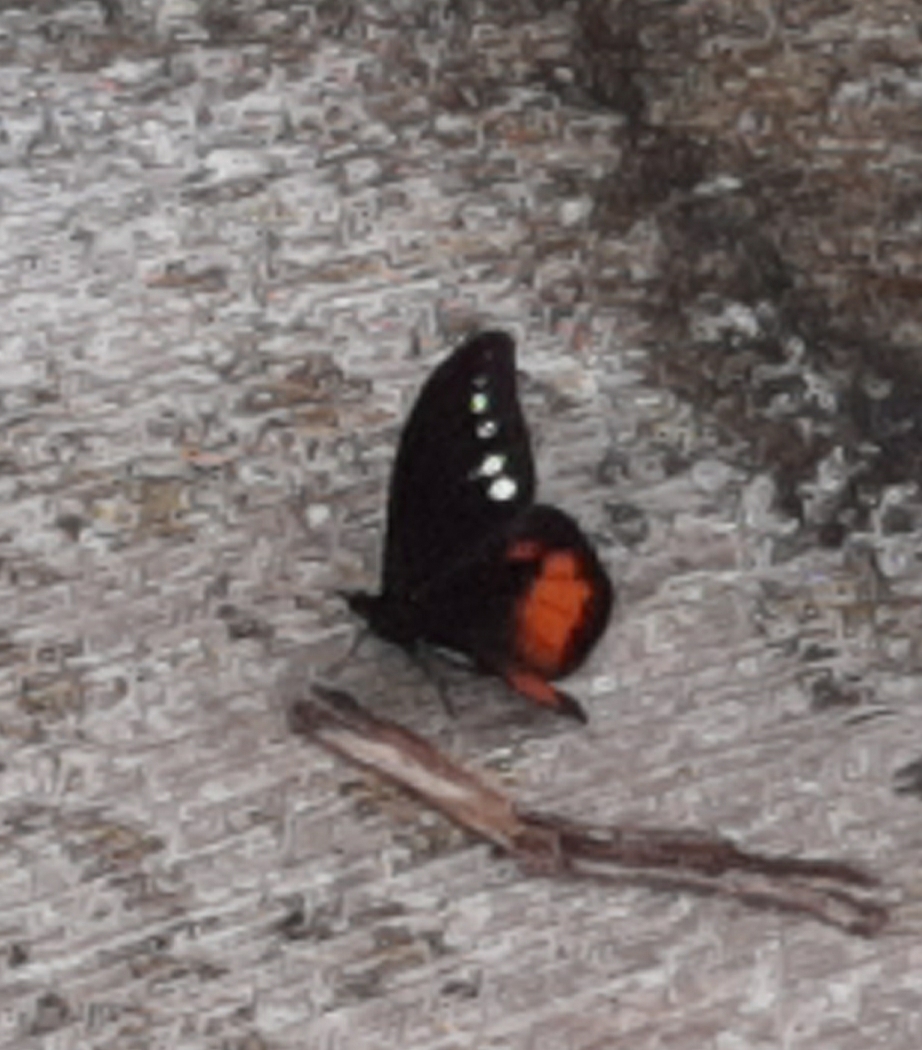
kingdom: Animalia
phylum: Arthropoda
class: Insecta
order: Lepidoptera
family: Nymphalidae
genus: Drucina
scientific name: Drucina leonata
